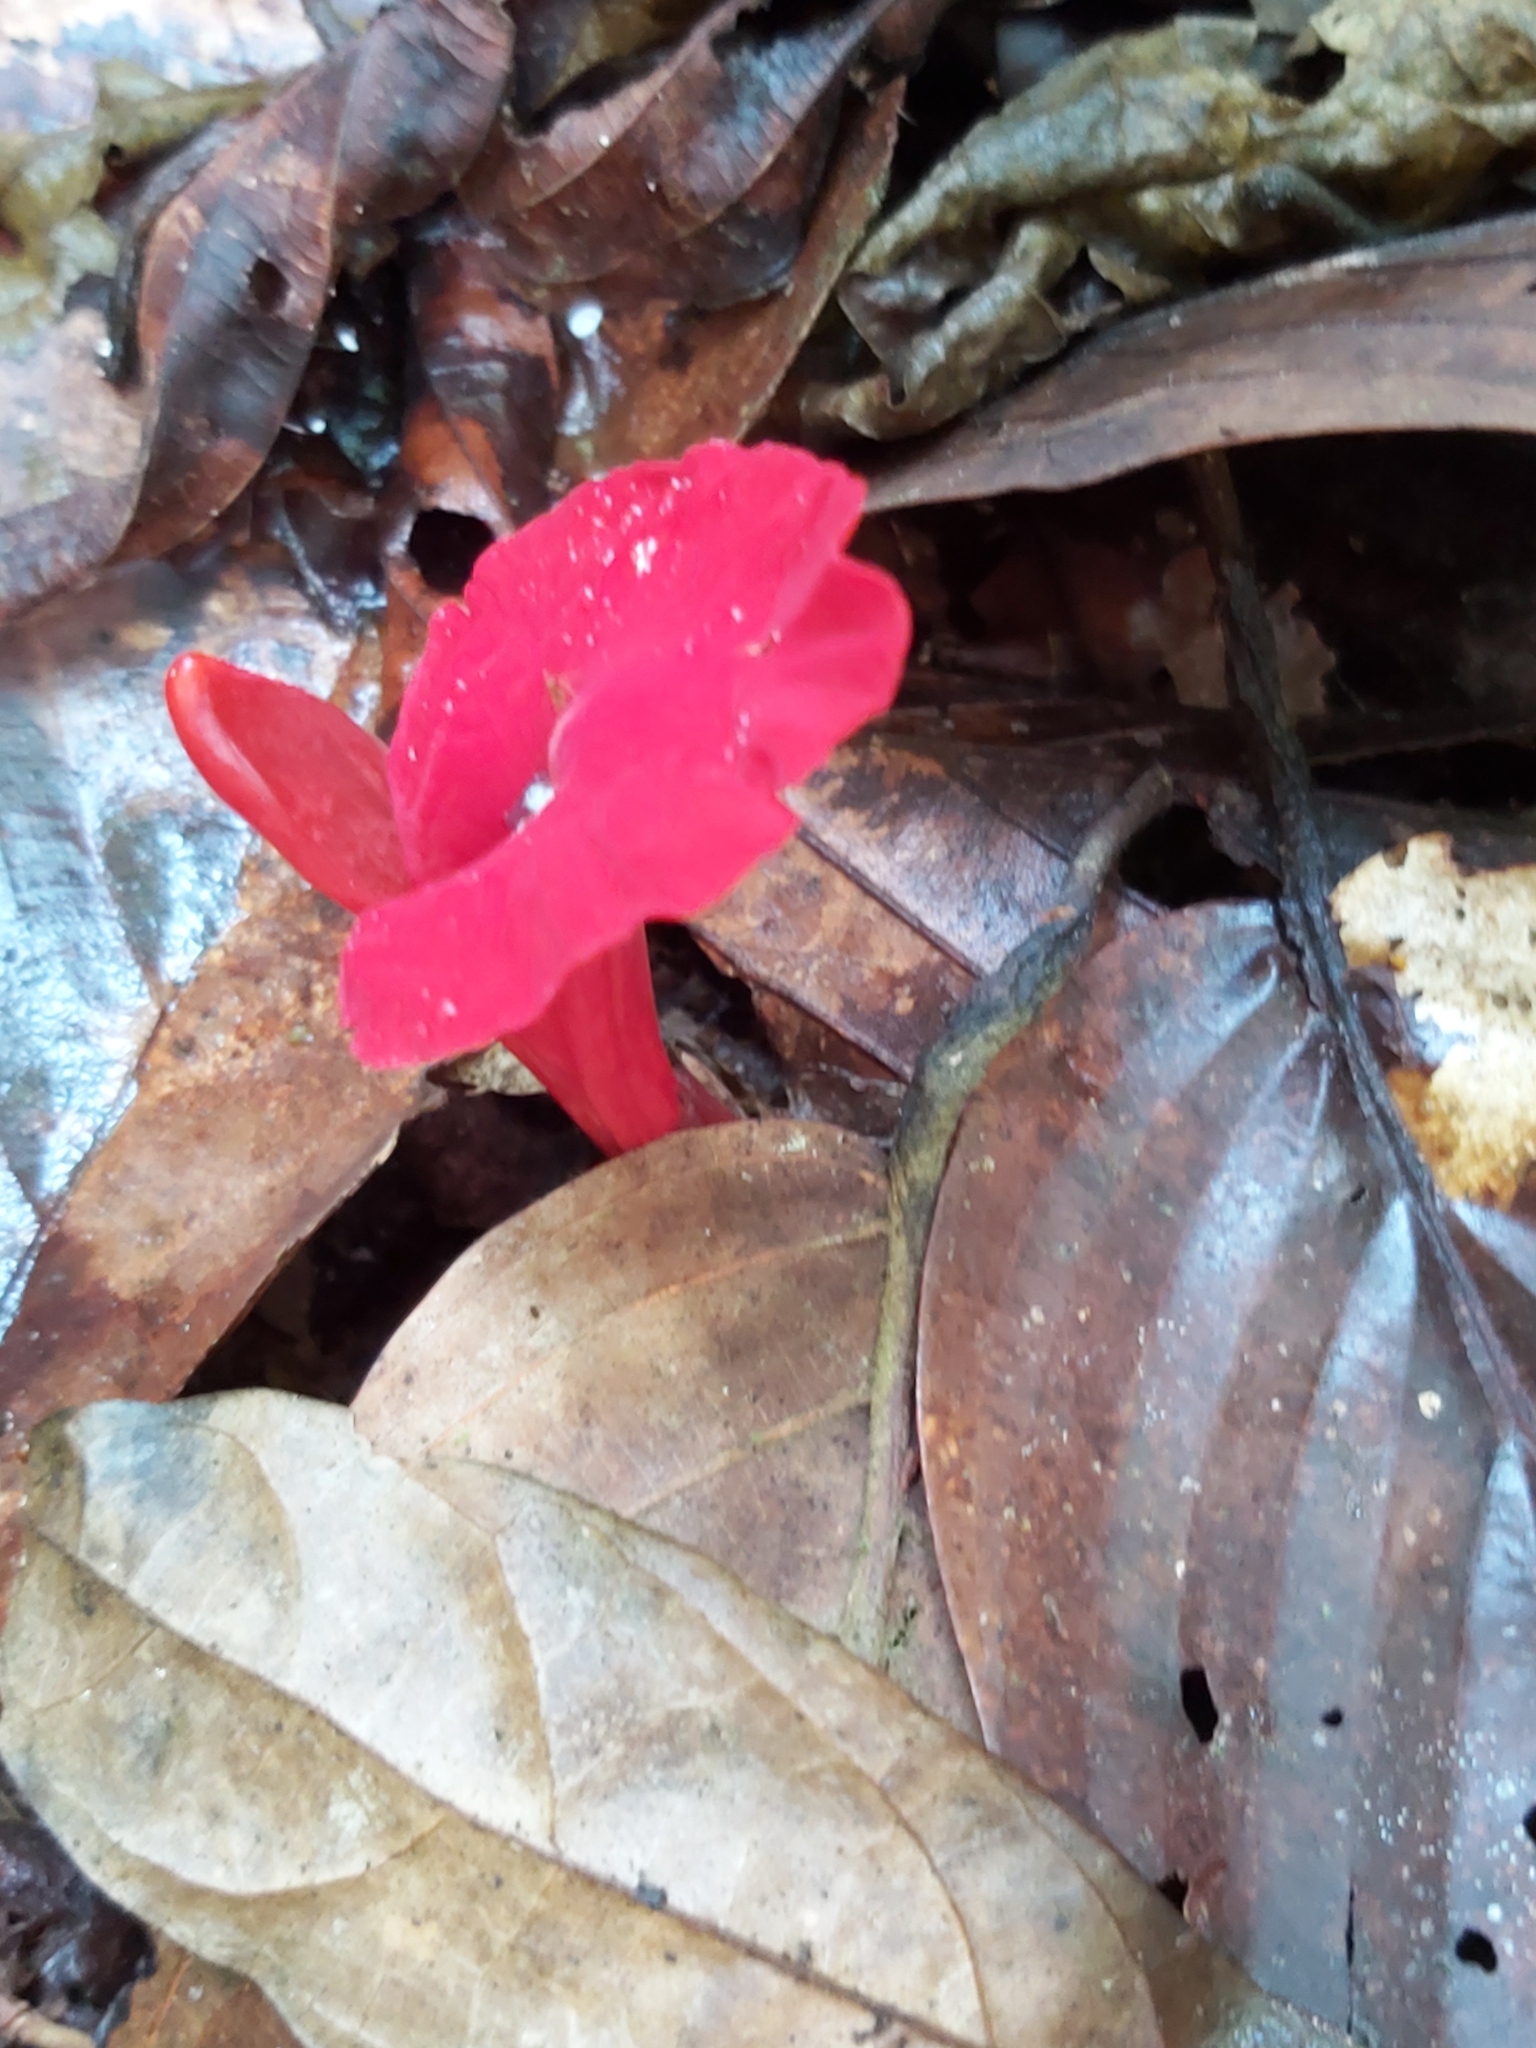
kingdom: Plantae
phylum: Tracheophyta
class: Liliopsida
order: Zingiberales
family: Zingiberaceae
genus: Etlingera
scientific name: Etlingera brevilabrum
